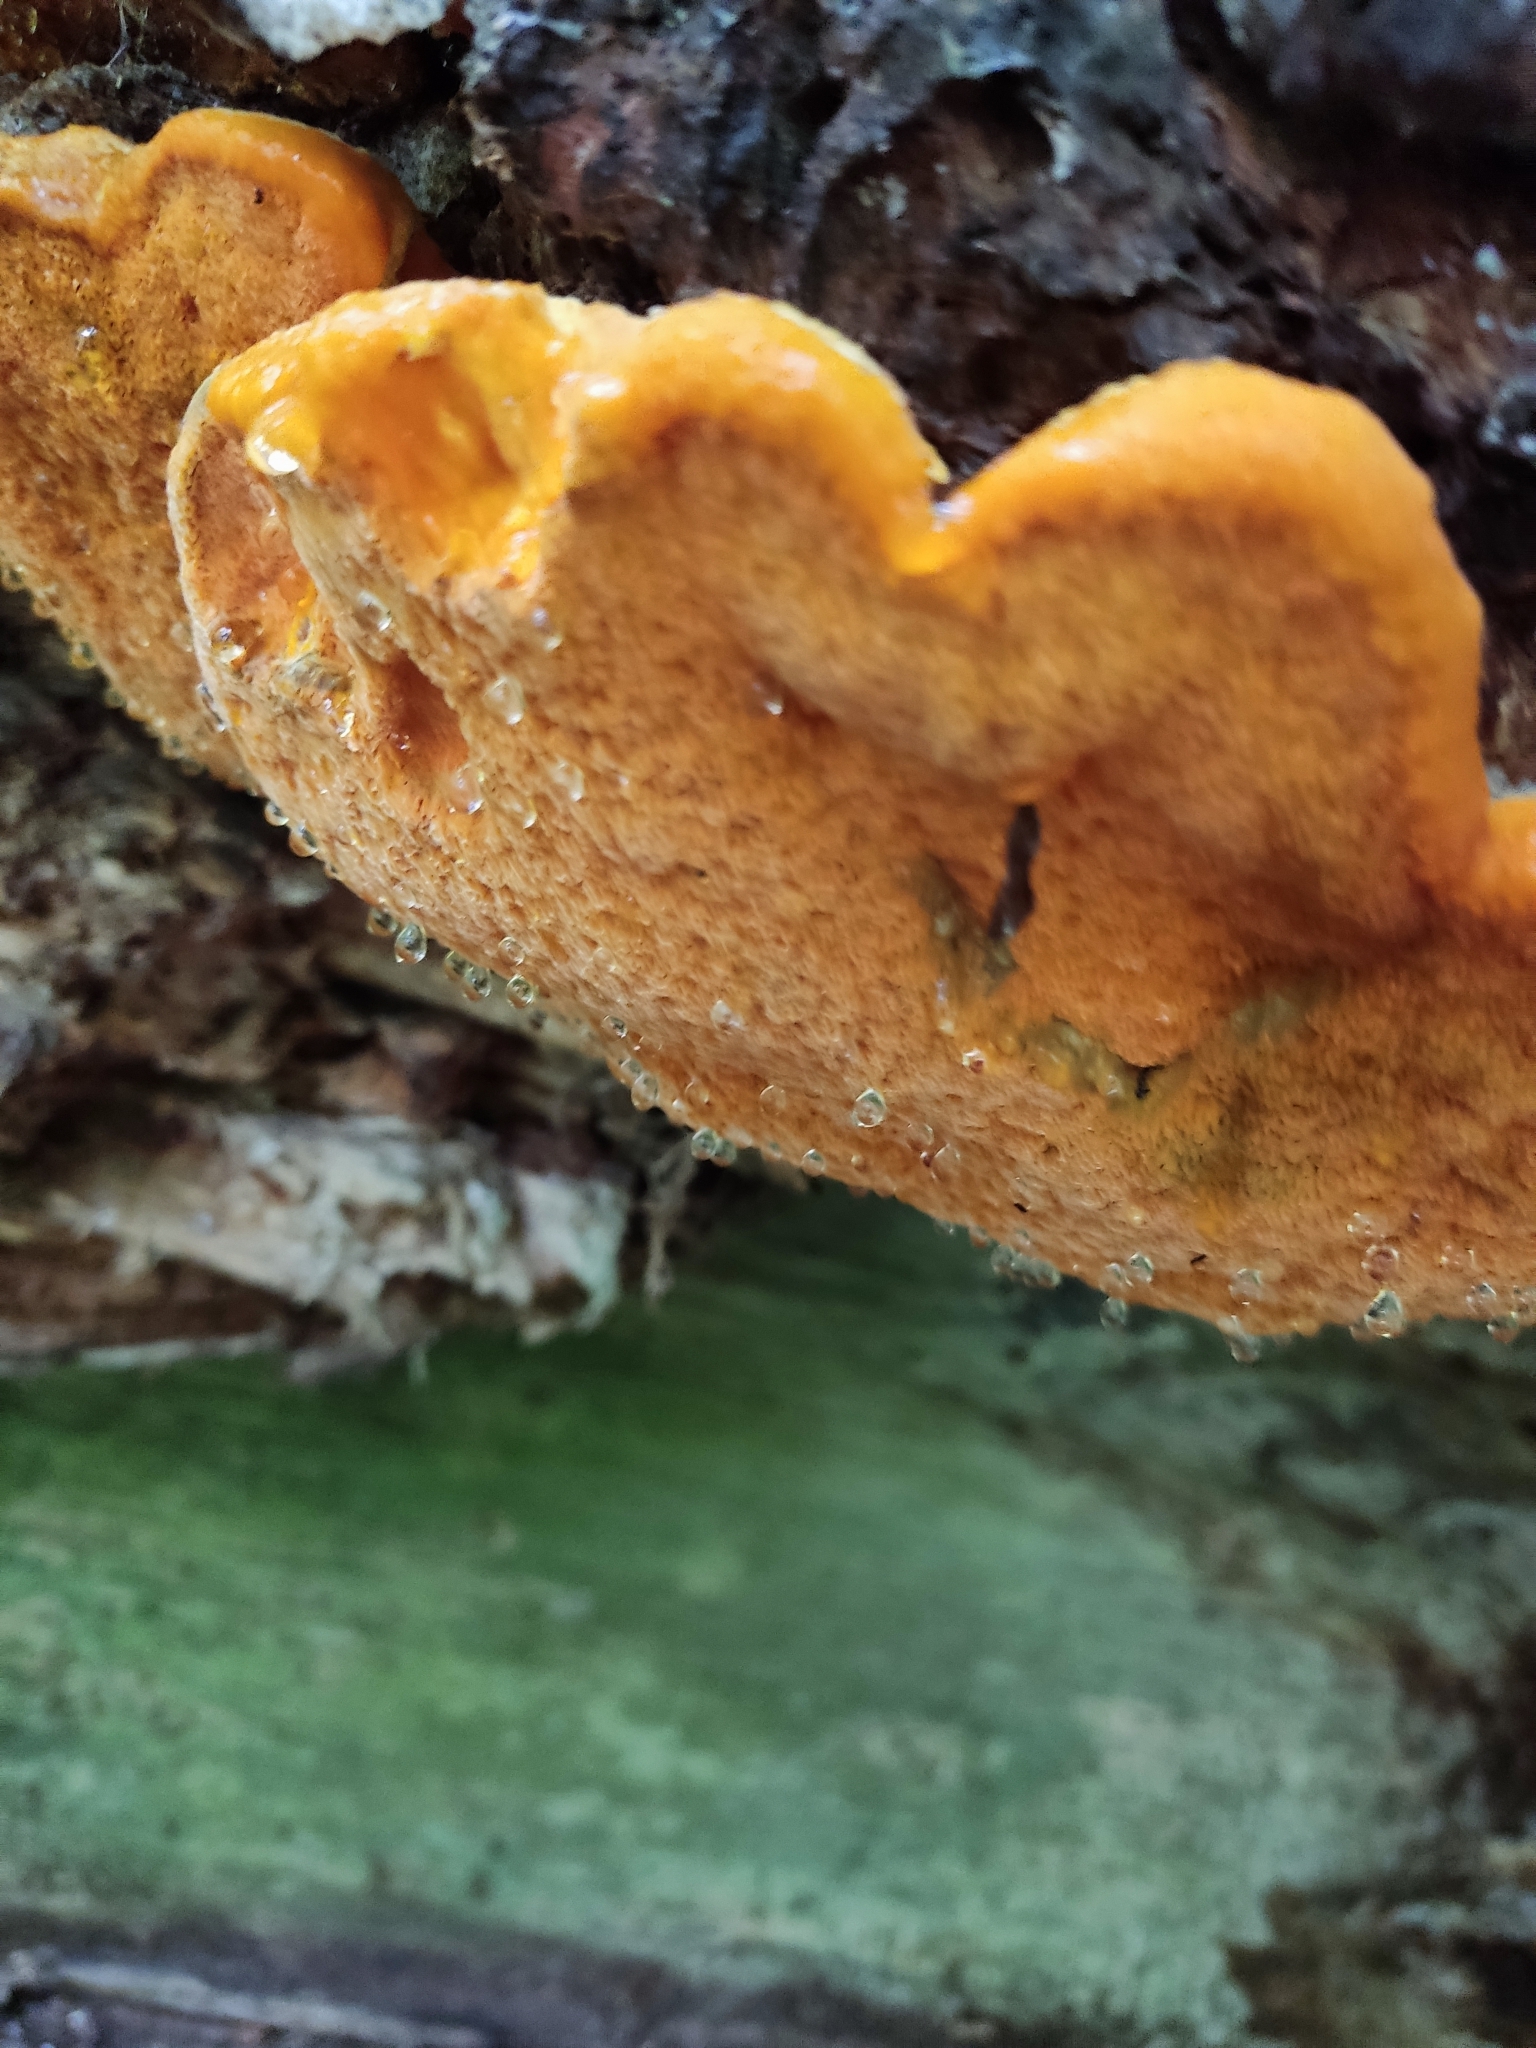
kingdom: Fungi
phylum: Basidiomycota
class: Agaricomycetes
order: Polyporales
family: Phanerochaetaceae
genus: Hapalopilus
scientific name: Hapalopilus croceus
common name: Orange polypore
